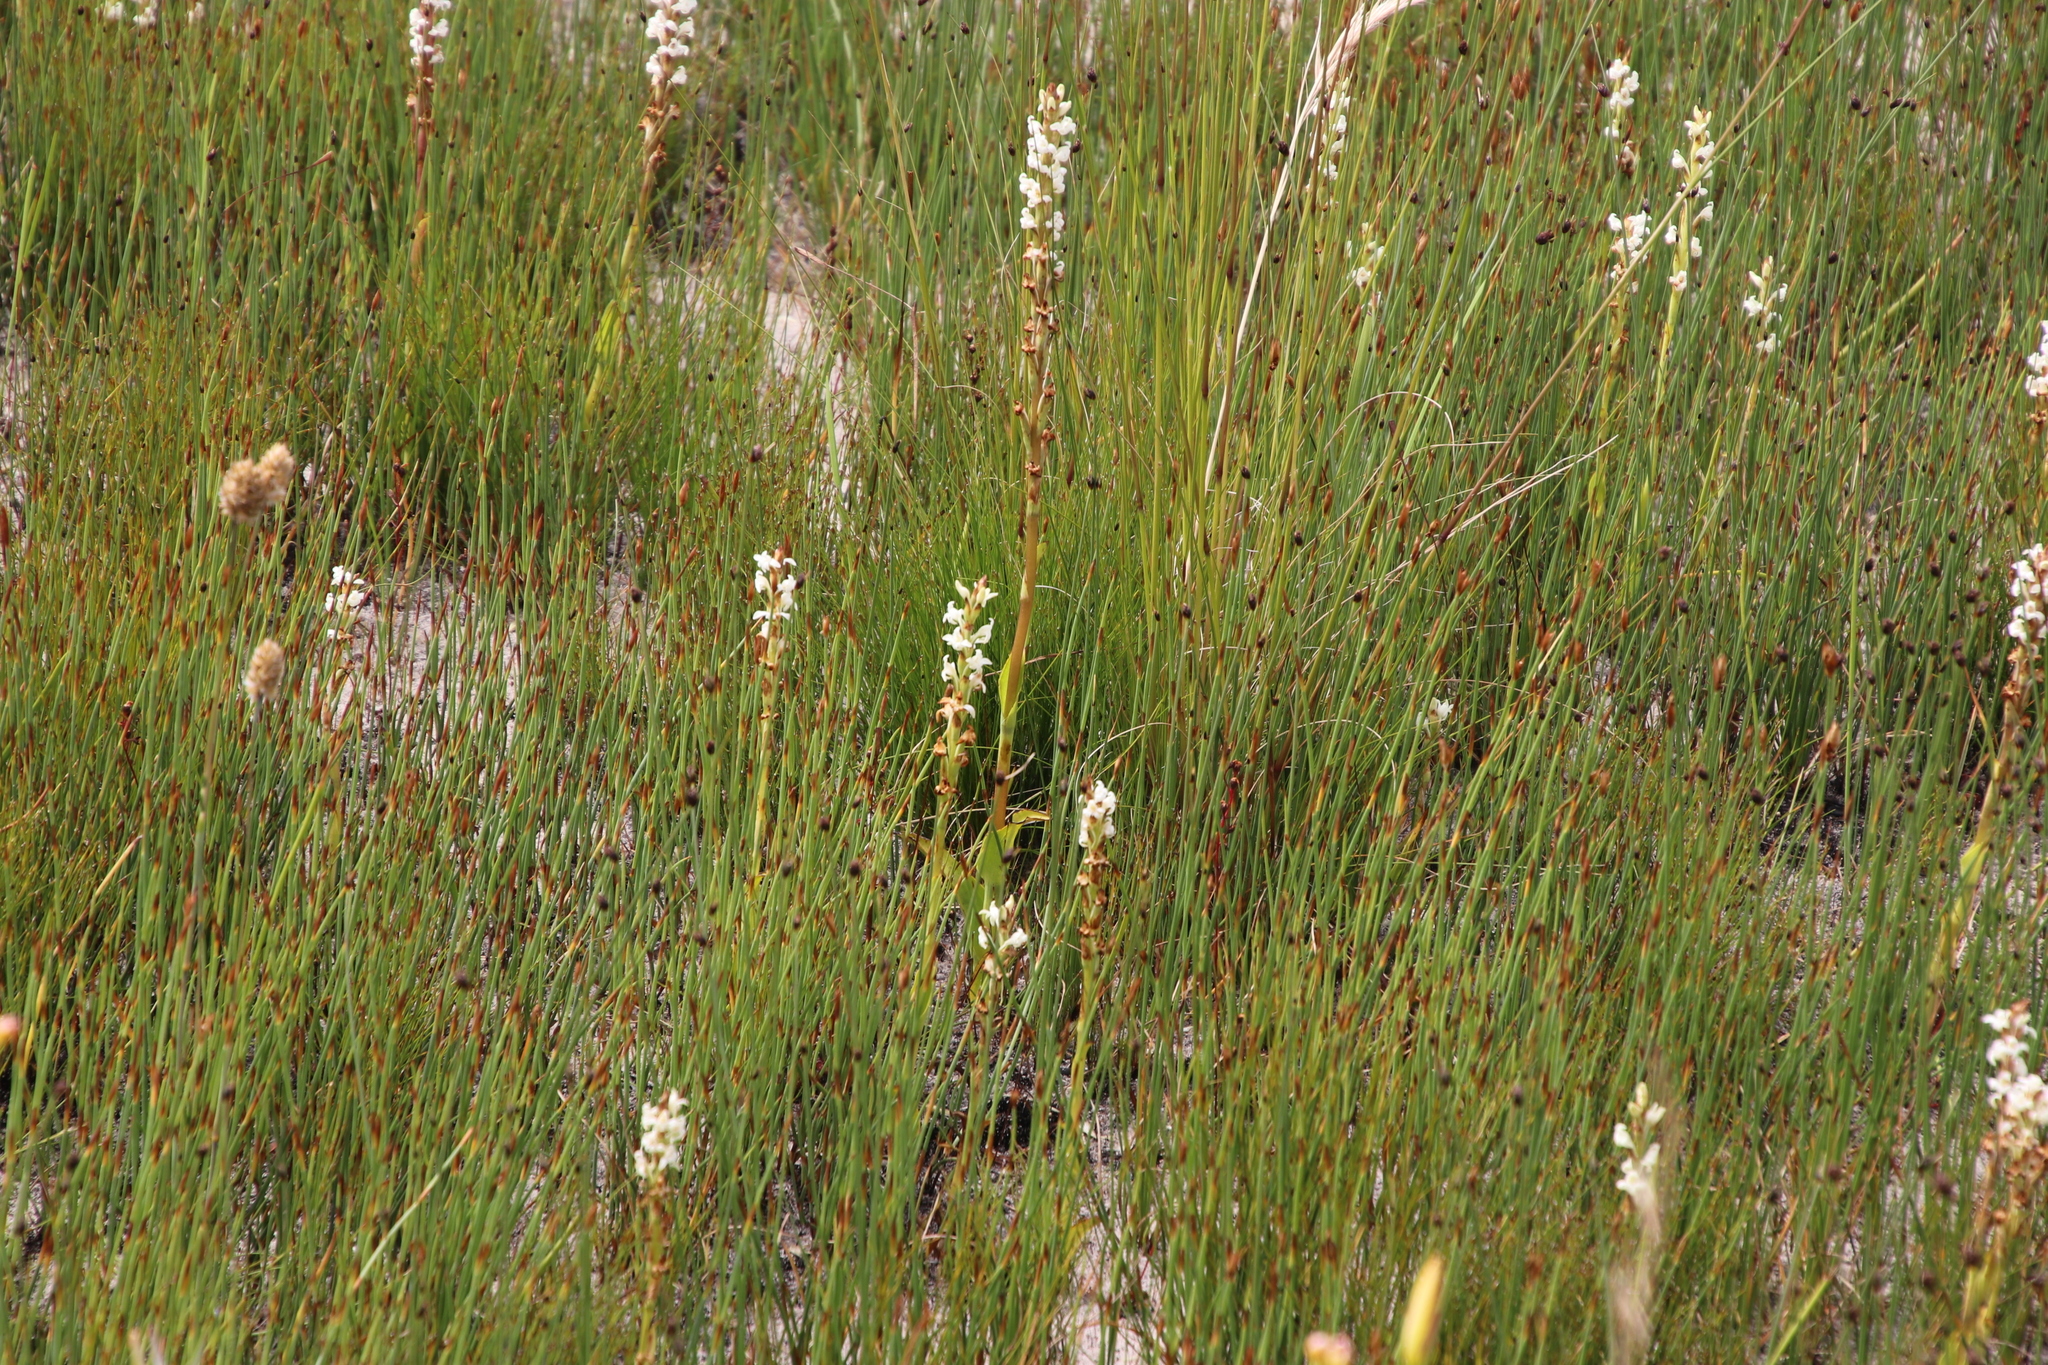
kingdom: Plantae
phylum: Tracheophyta
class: Liliopsida
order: Asparagales
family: Orchidaceae
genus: Satyrium
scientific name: Satyrium stenopetalum
